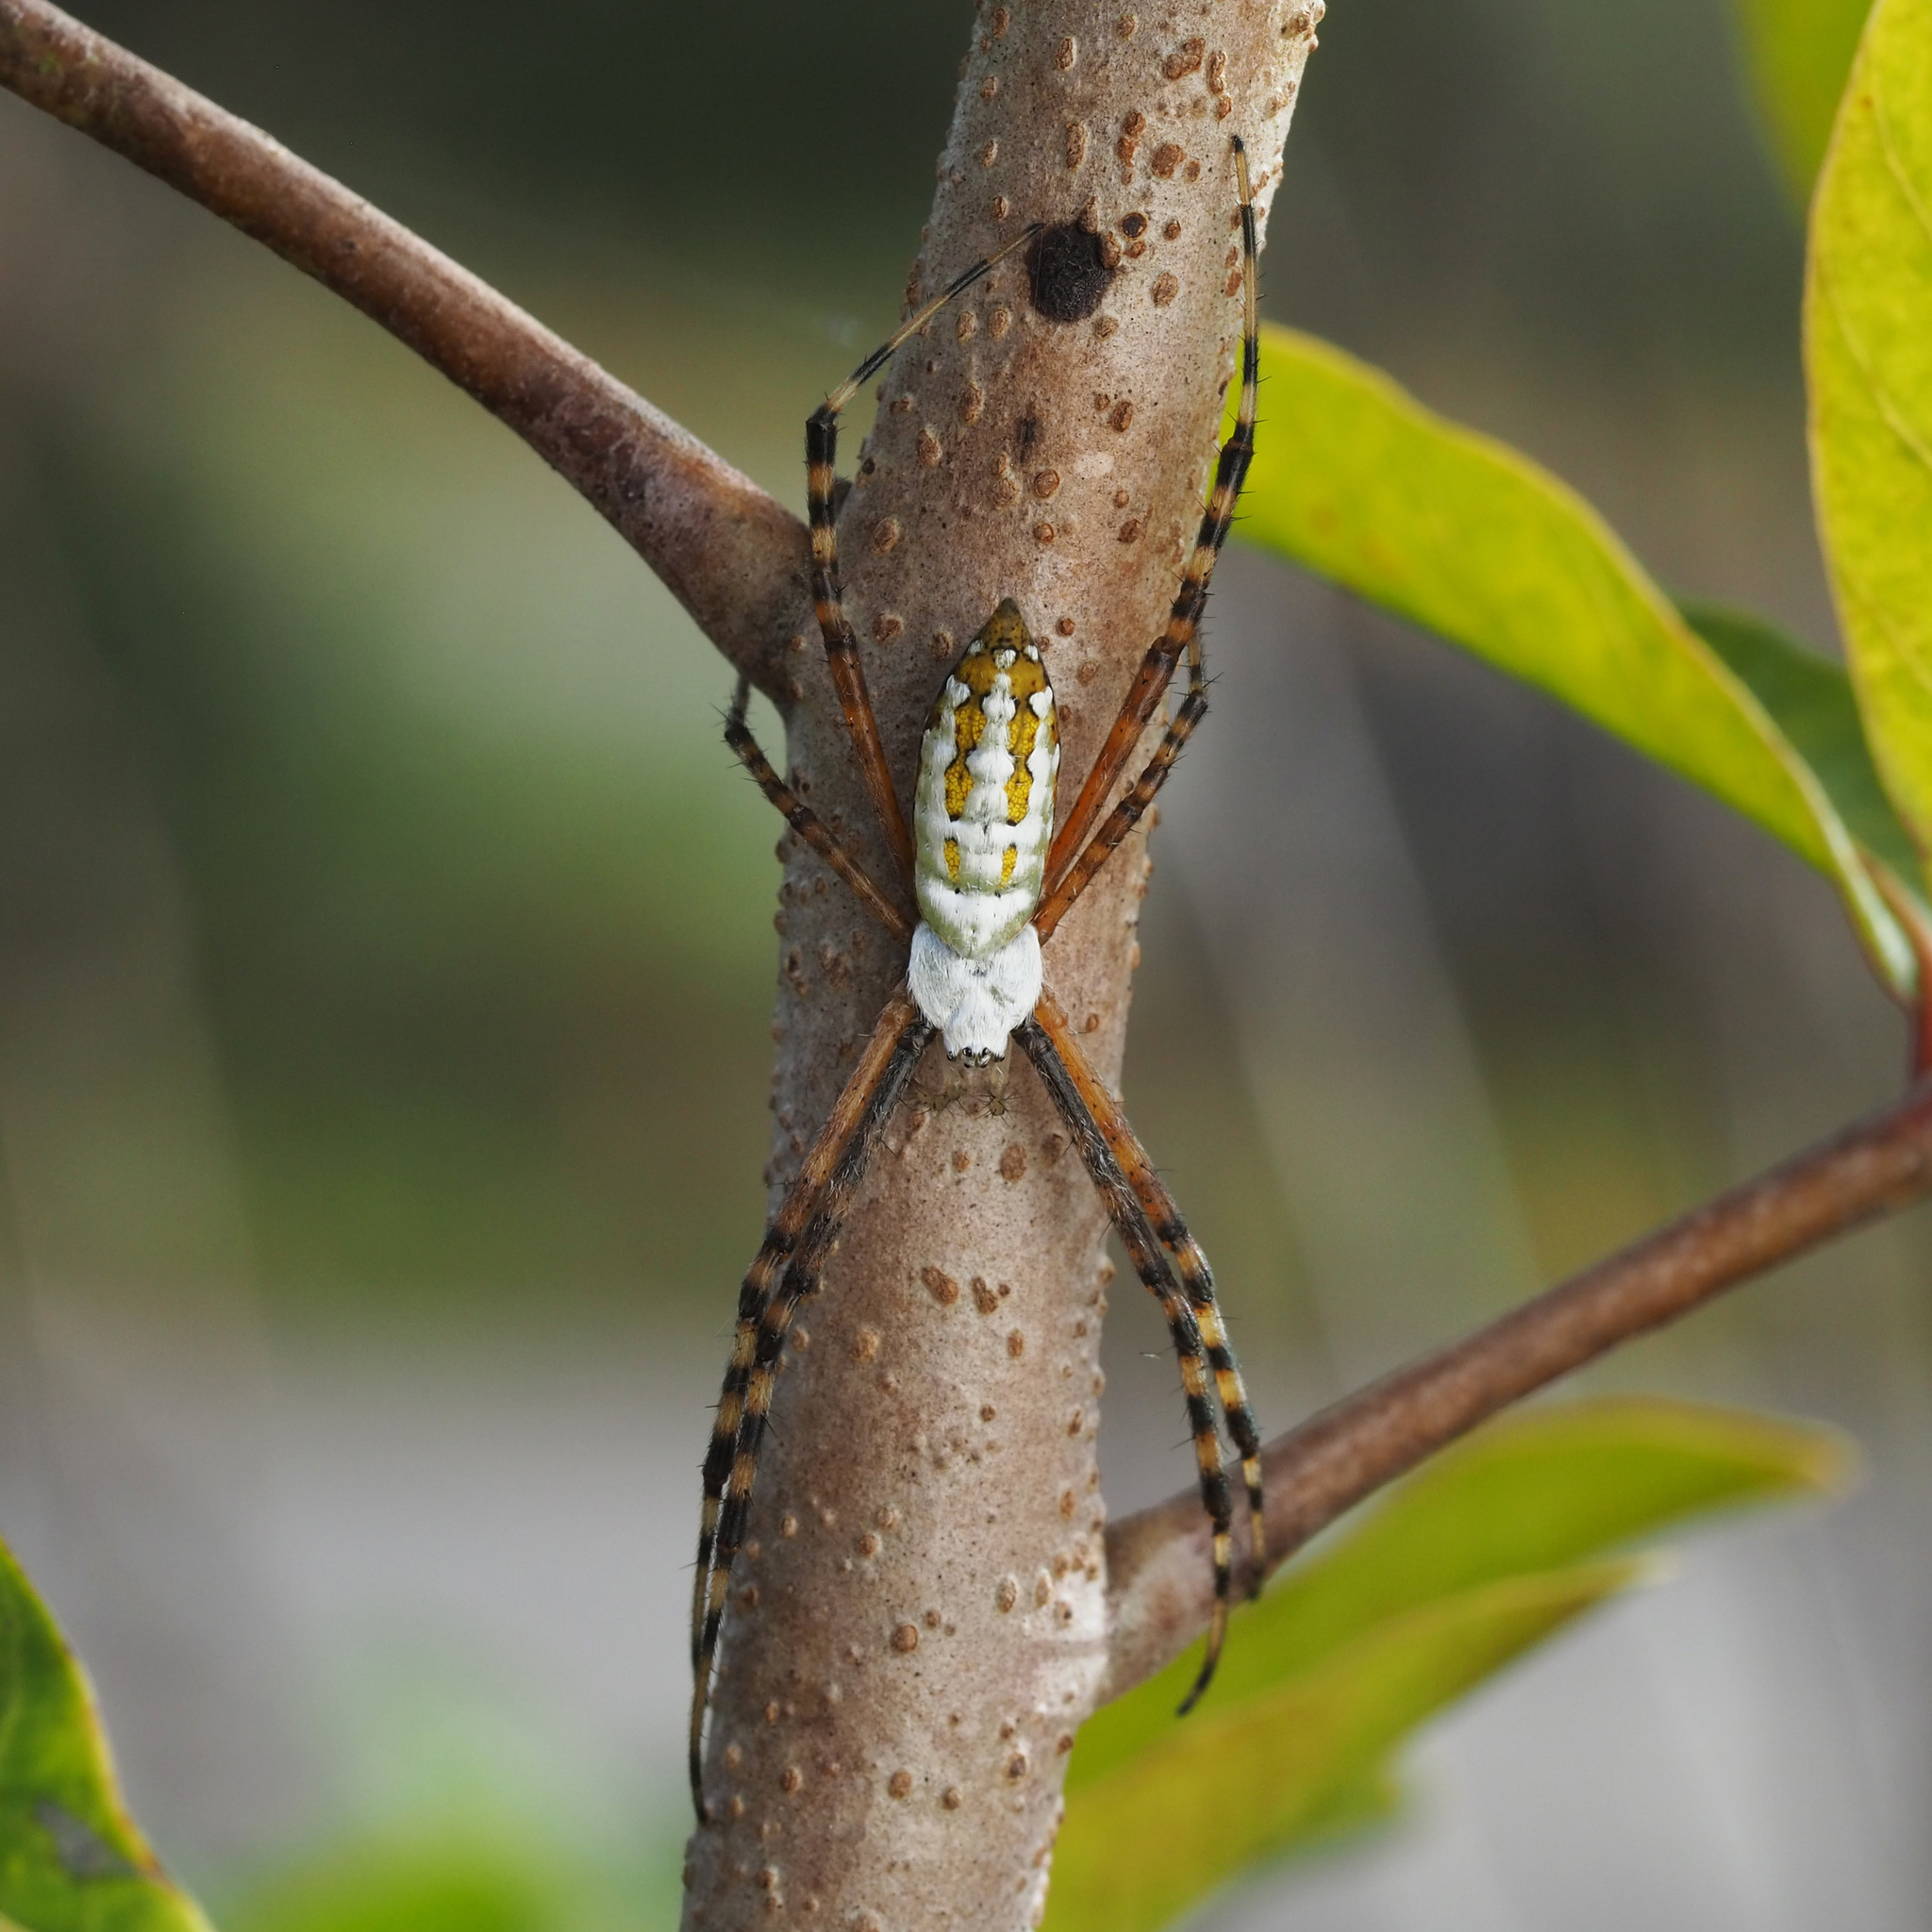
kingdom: Animalia
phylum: Arthropoda
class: Arachnida
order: Araneae
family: Araneidae
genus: Argiope
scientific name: Argiope trifasciata
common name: Banded garden spider
